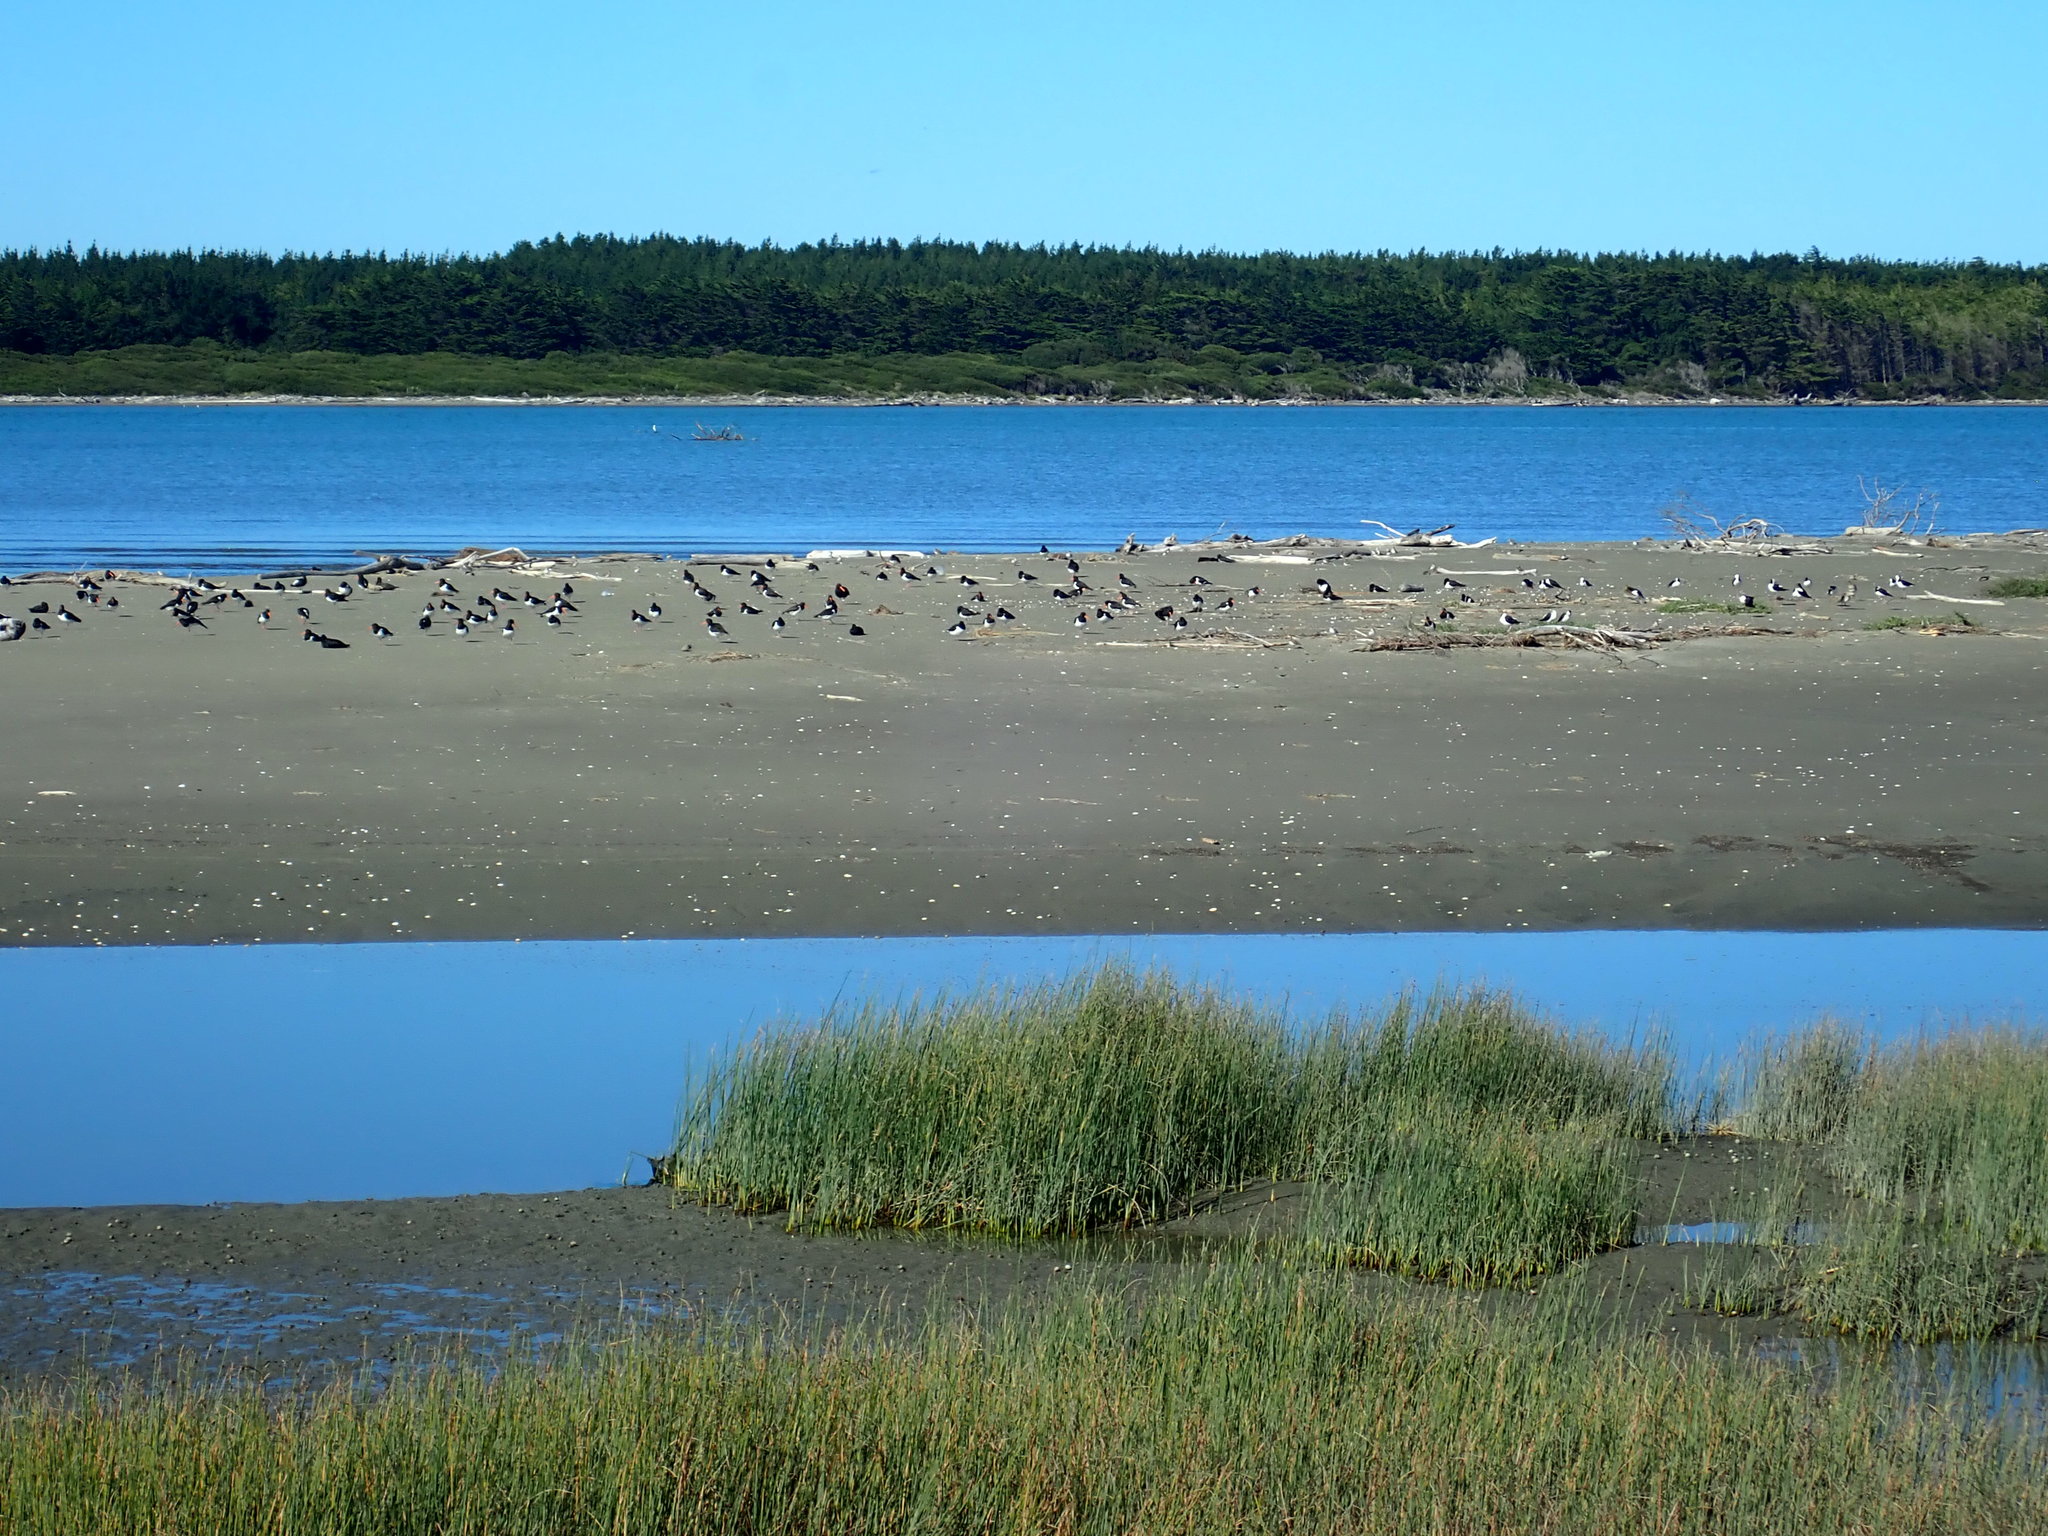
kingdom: Animalia
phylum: Chordata
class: Aves
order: Charadriiformes
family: Haematopodidae
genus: Haematopus
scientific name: Haematopus finschi
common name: South island oystercatcher
